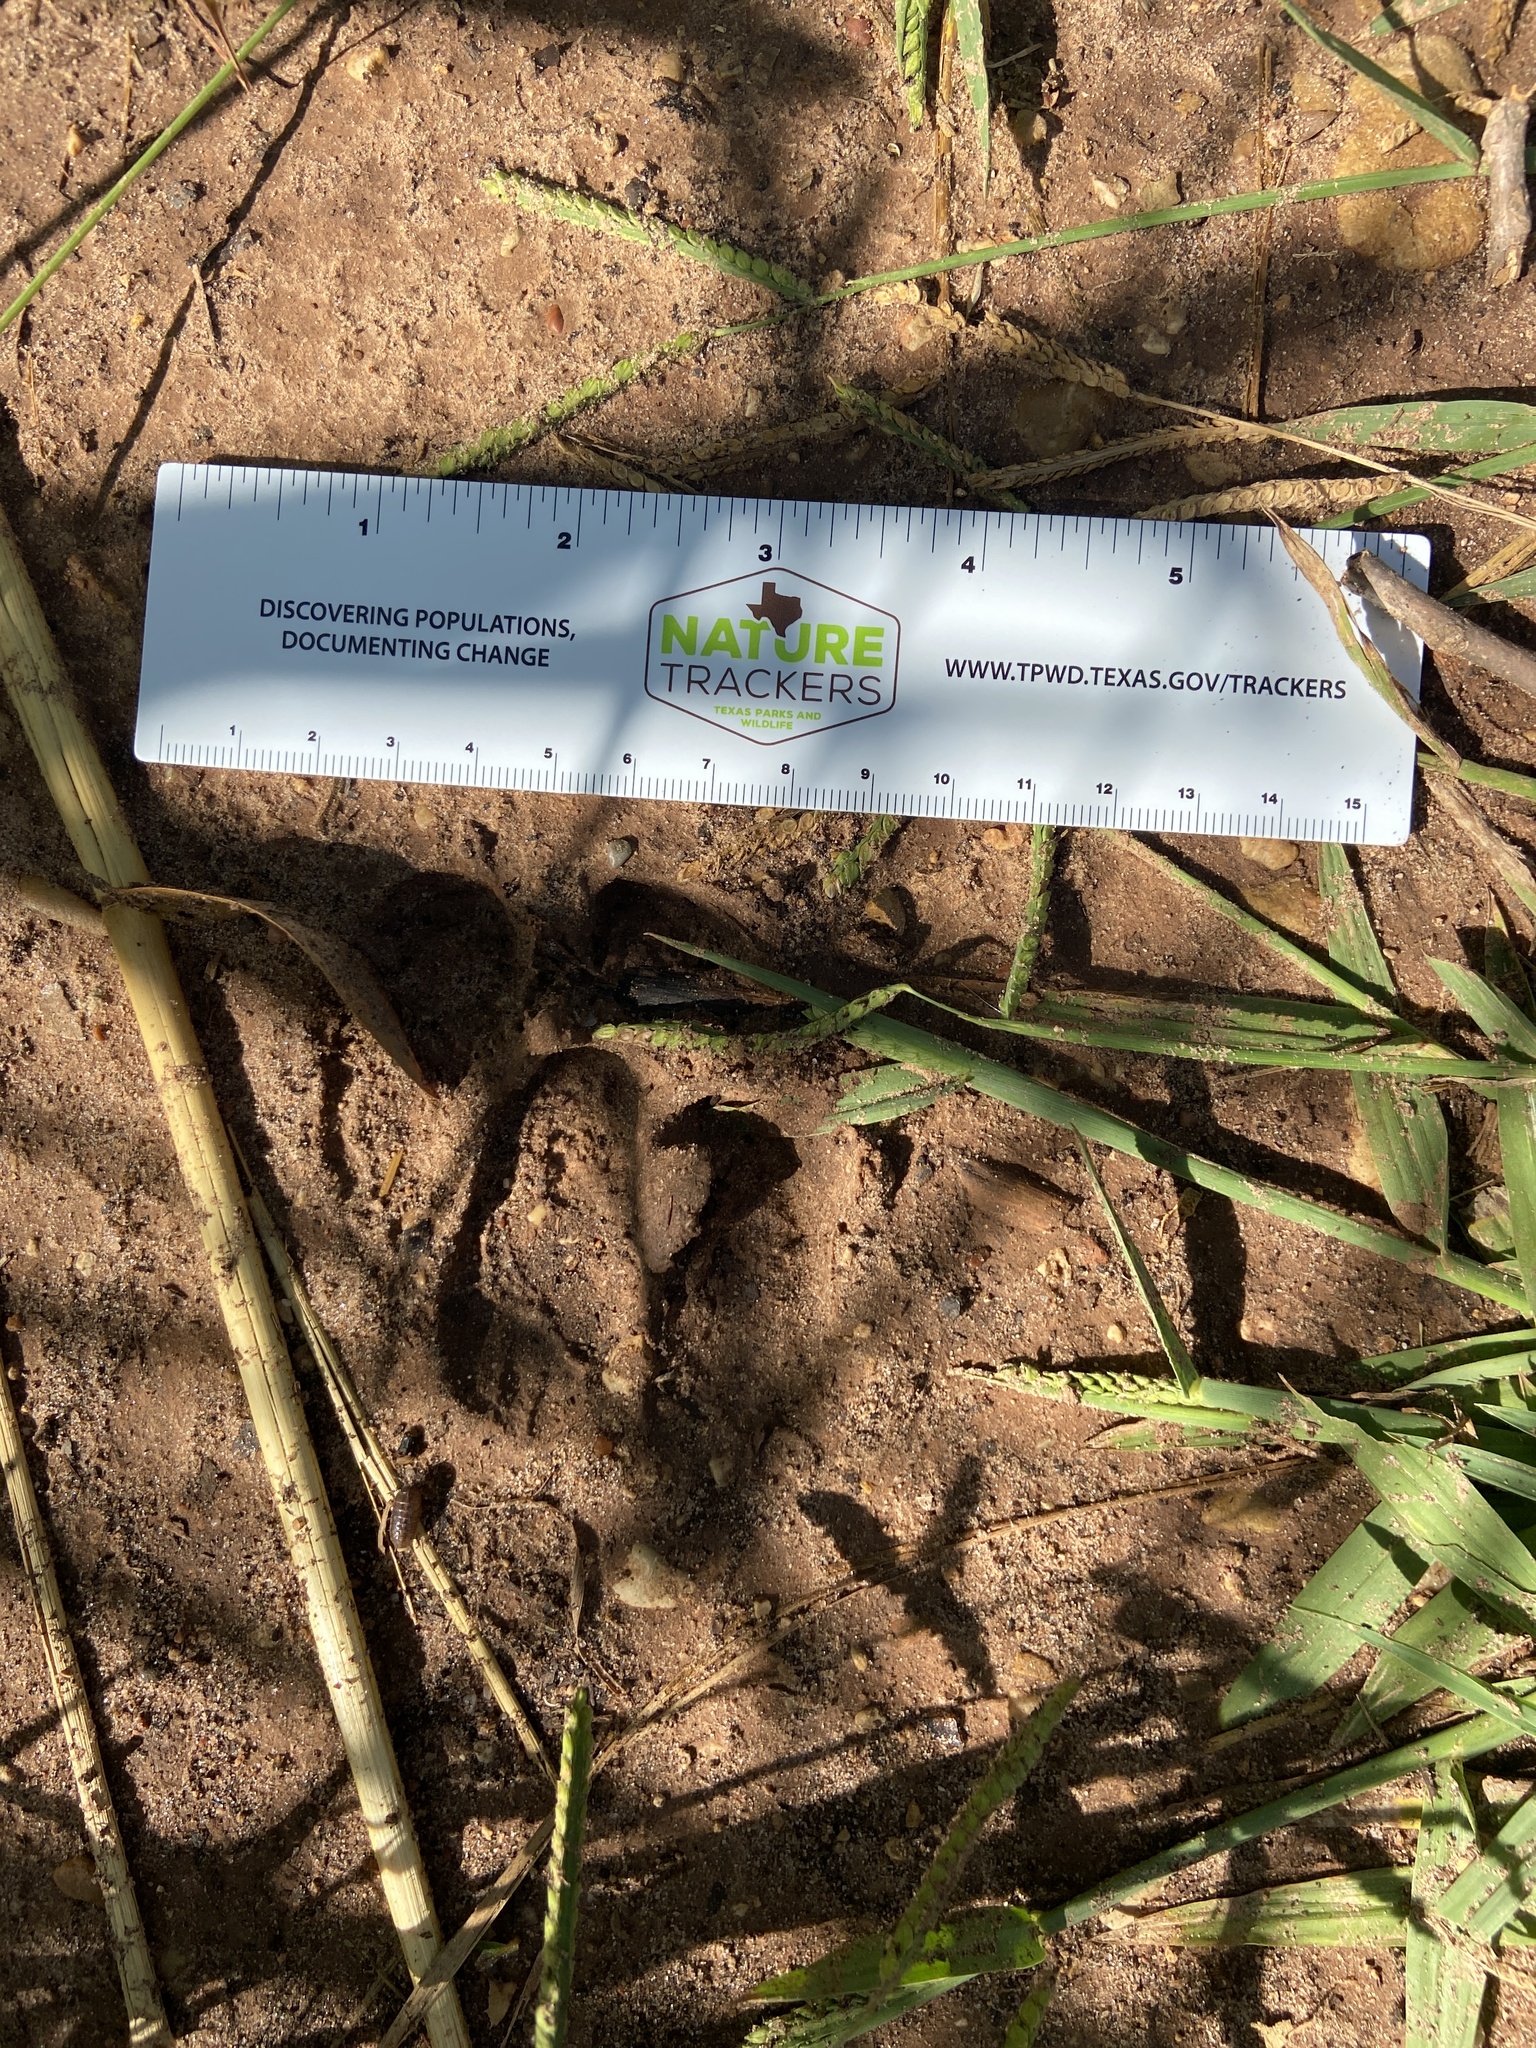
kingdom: Animalia
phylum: Chordata
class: Mammalia
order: Artiodactyla
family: Suidae
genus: Sus
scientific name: Sus scrofa
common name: Wild boar
